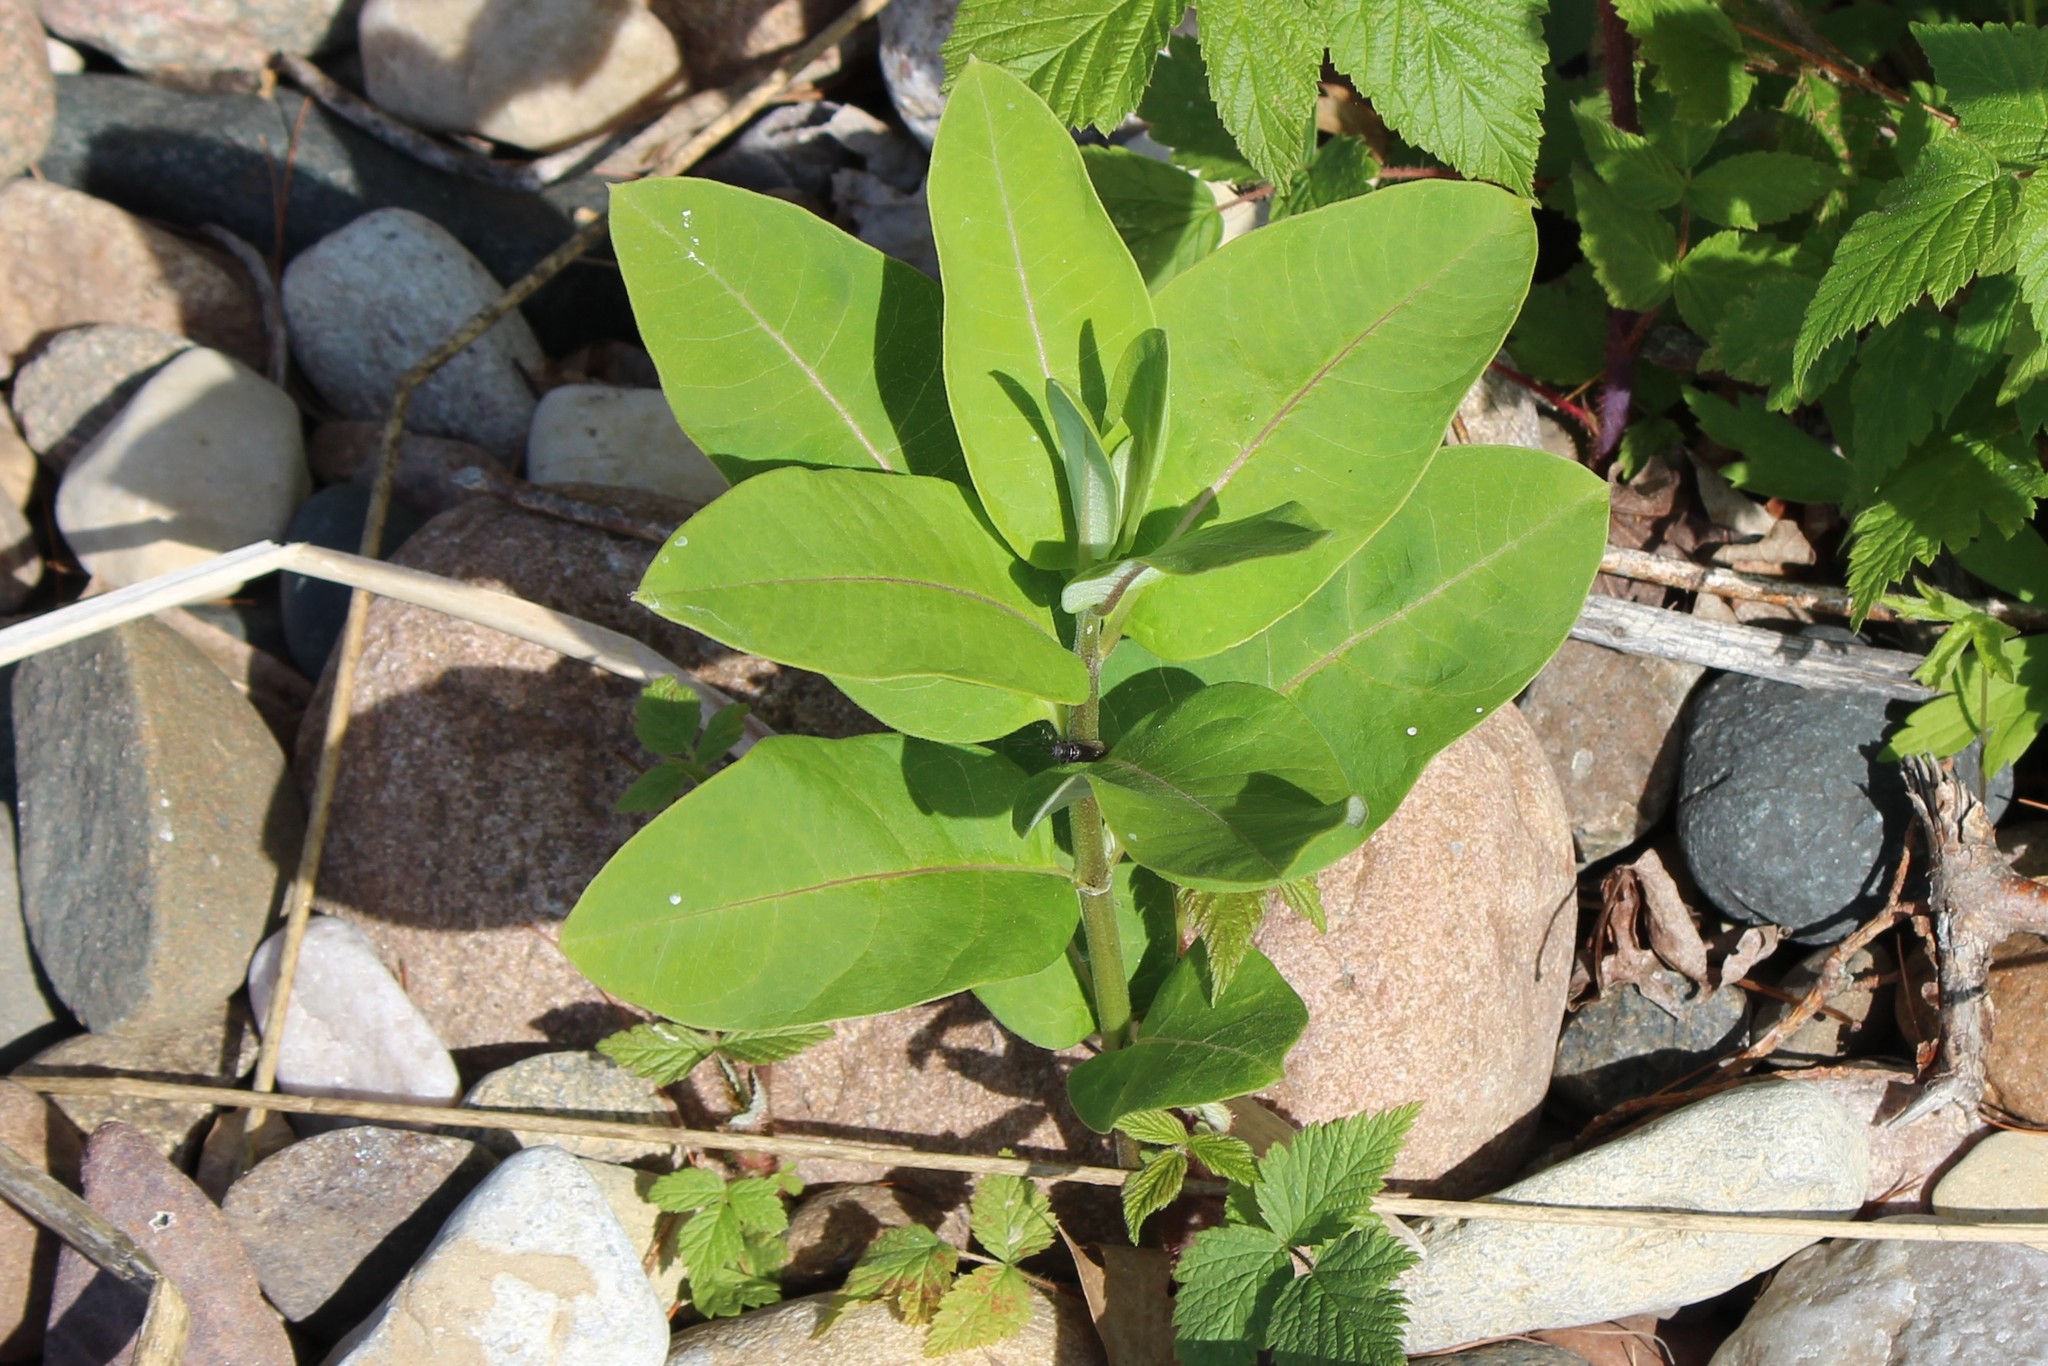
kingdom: Plantae
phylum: Tracheophyta
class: Magnoliopsida
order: Gentianales
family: Apocynaceae
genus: Asclepias
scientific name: Asclepias syriaca
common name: Common milkweed
